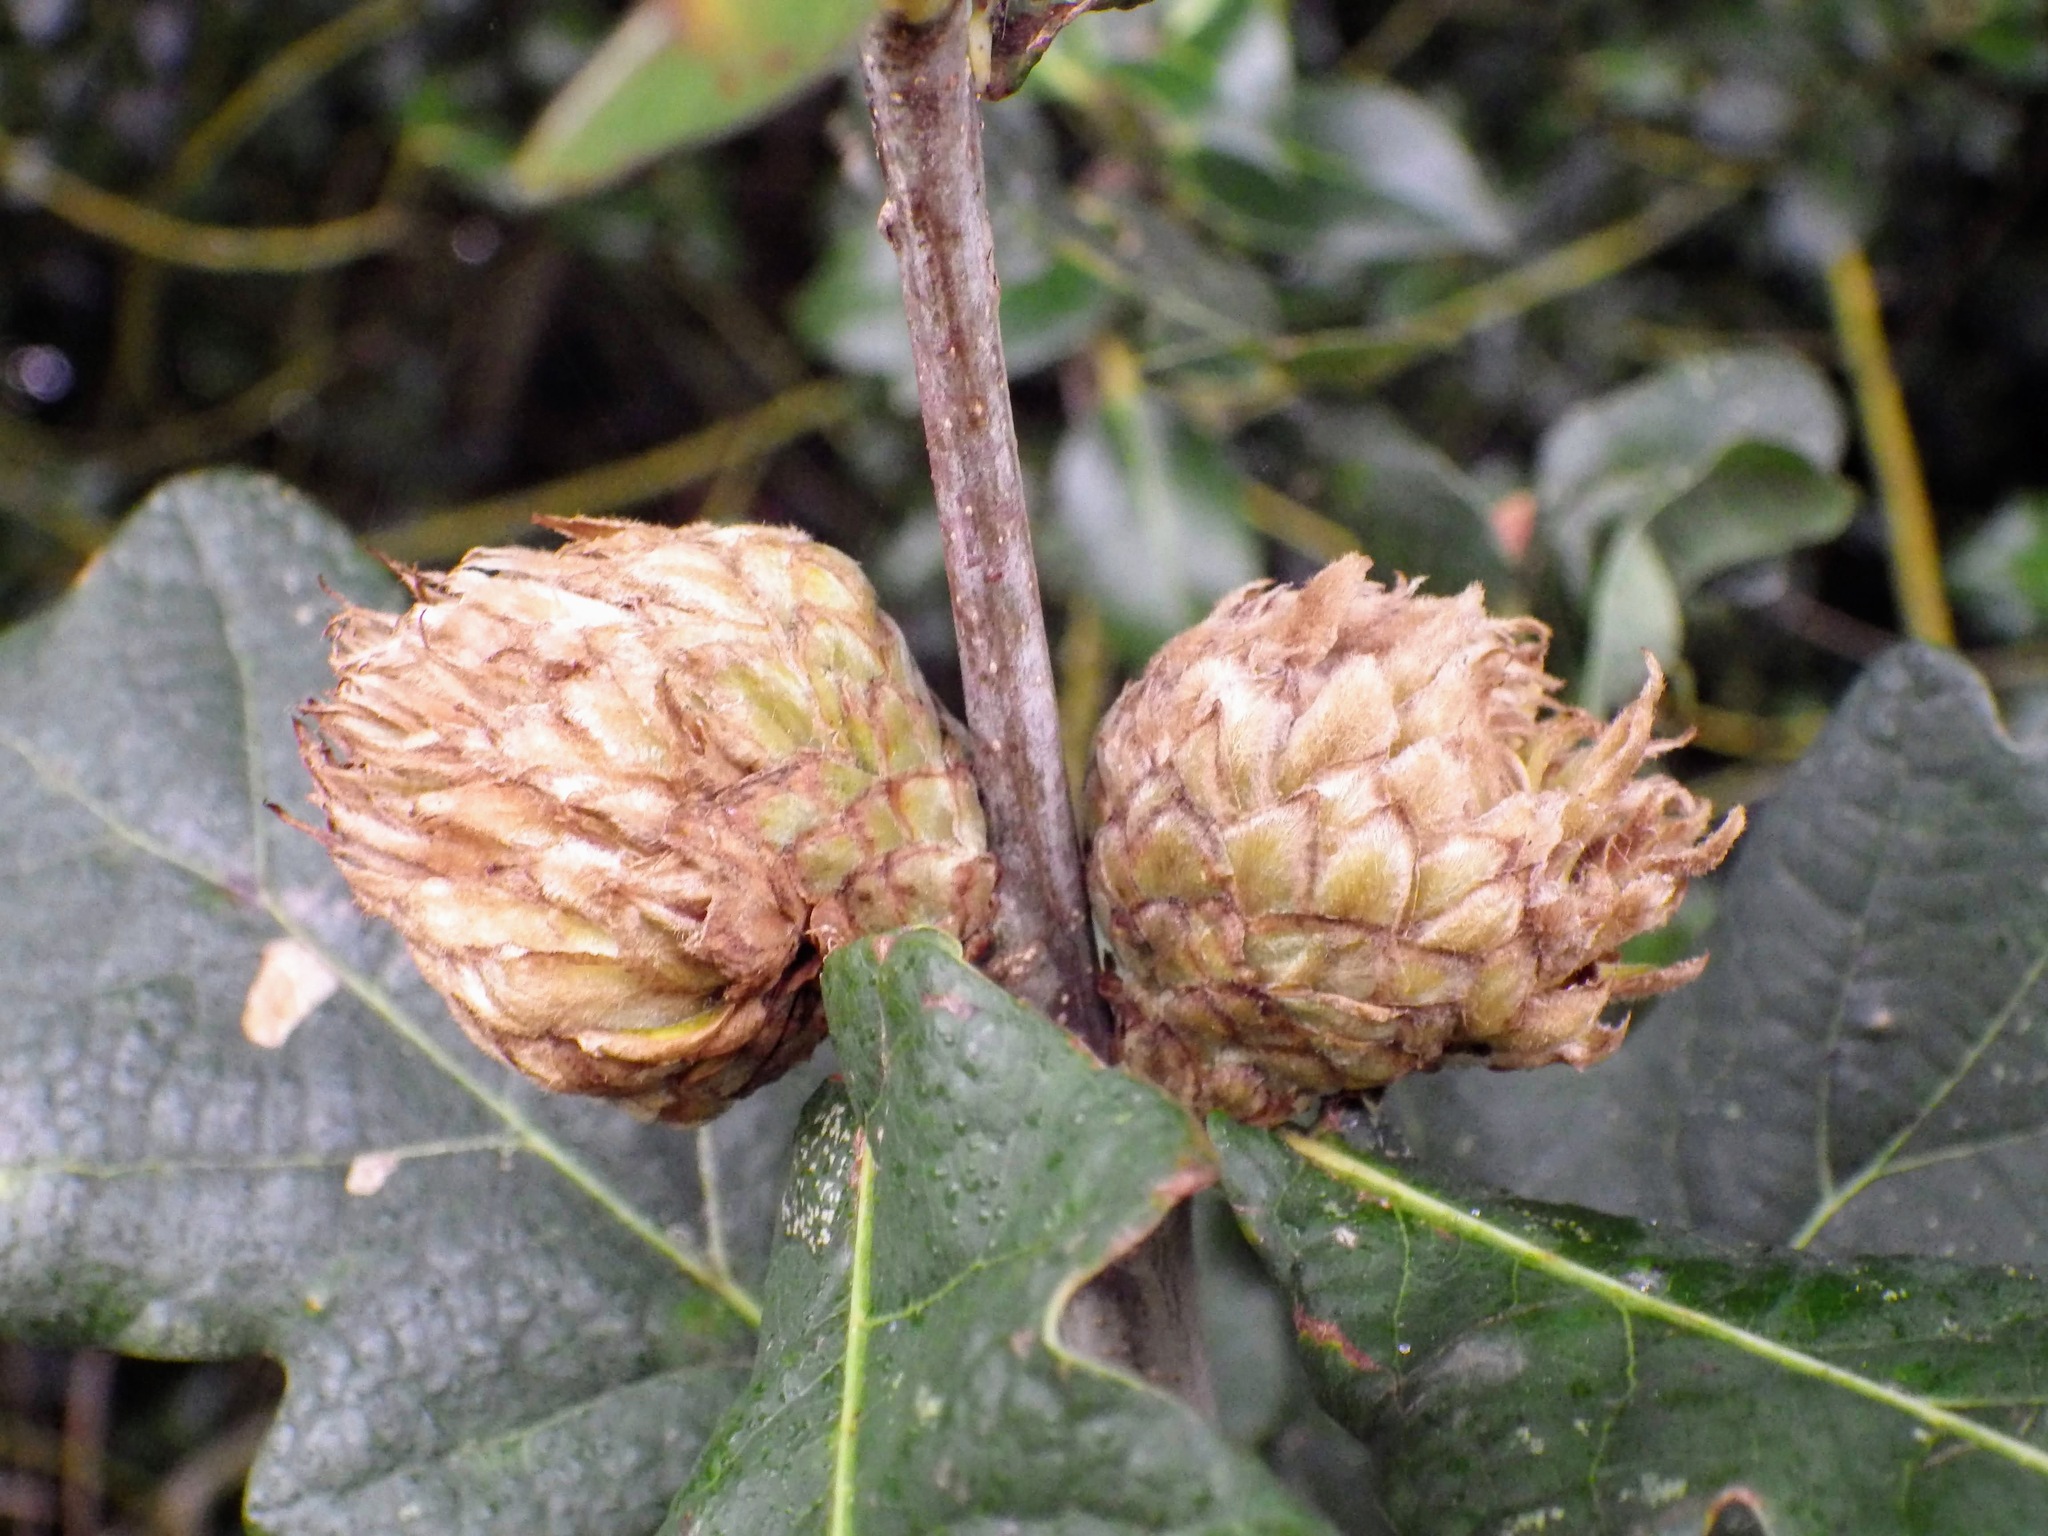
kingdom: Animalia
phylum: Arthropoda
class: Insecta
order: Hymenoptera
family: Cynipidae
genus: Andricus
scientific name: Andricus foecundatrix
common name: Artichoke gall
